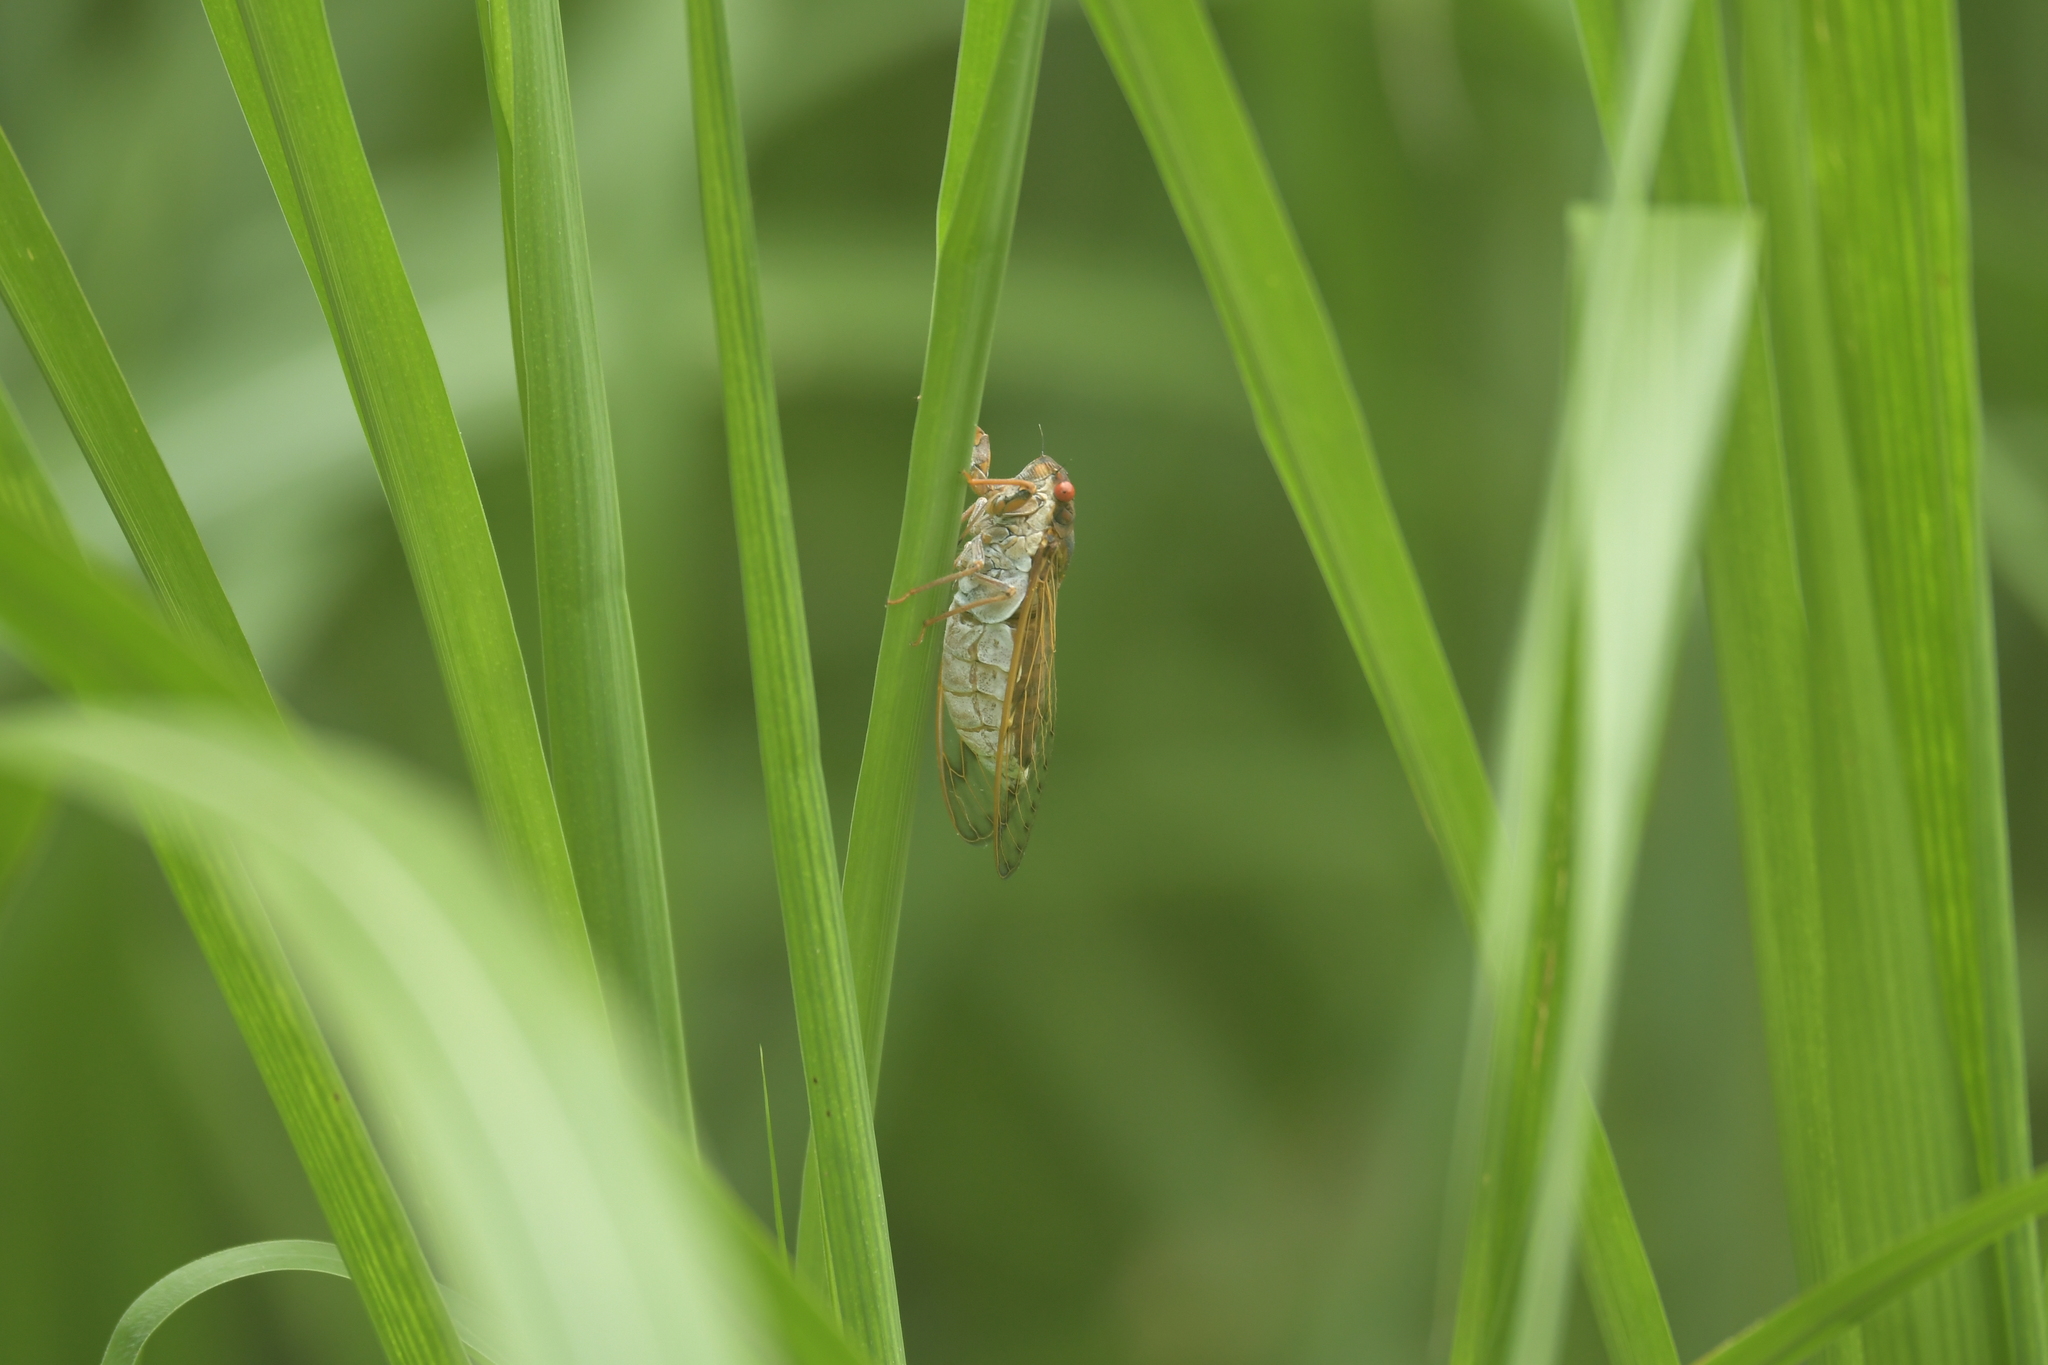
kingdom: Animalia
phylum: Arthropoda
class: Insecta
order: Hemiptera
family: Cicadidae
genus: Taiwanosemia
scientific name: Taiwanosemia hoppoensis
